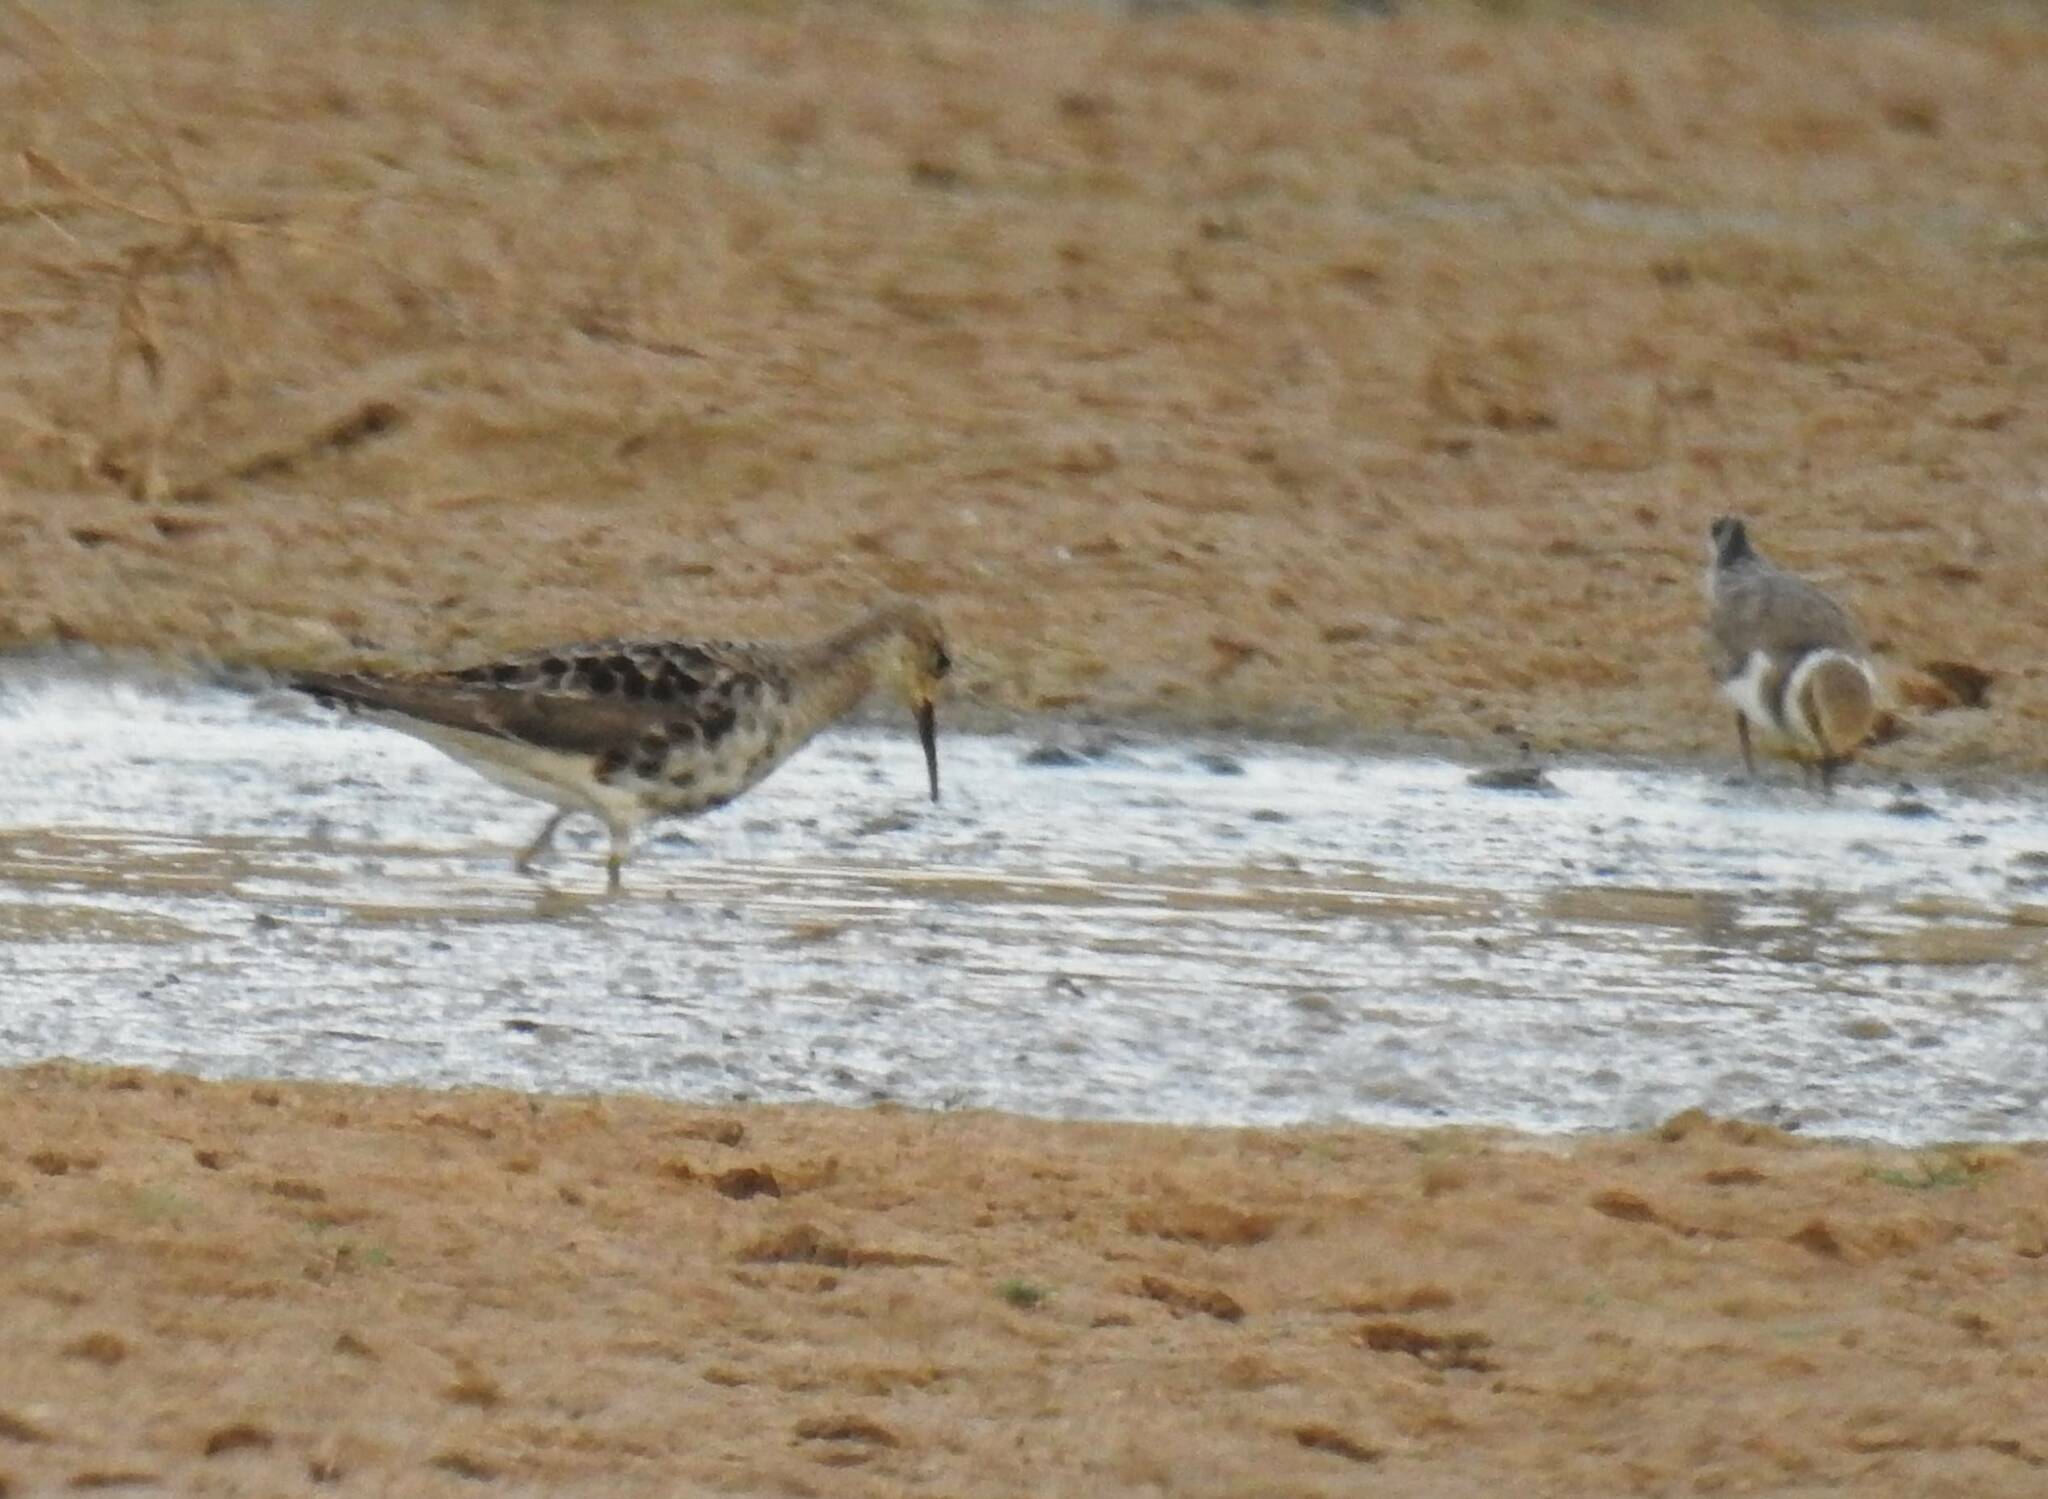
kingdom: Animalia
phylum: Chordata
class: Aves
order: Charadriiformes
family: Scolopacidae
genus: Calidris
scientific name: Calidris pugnax
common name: Ruff
